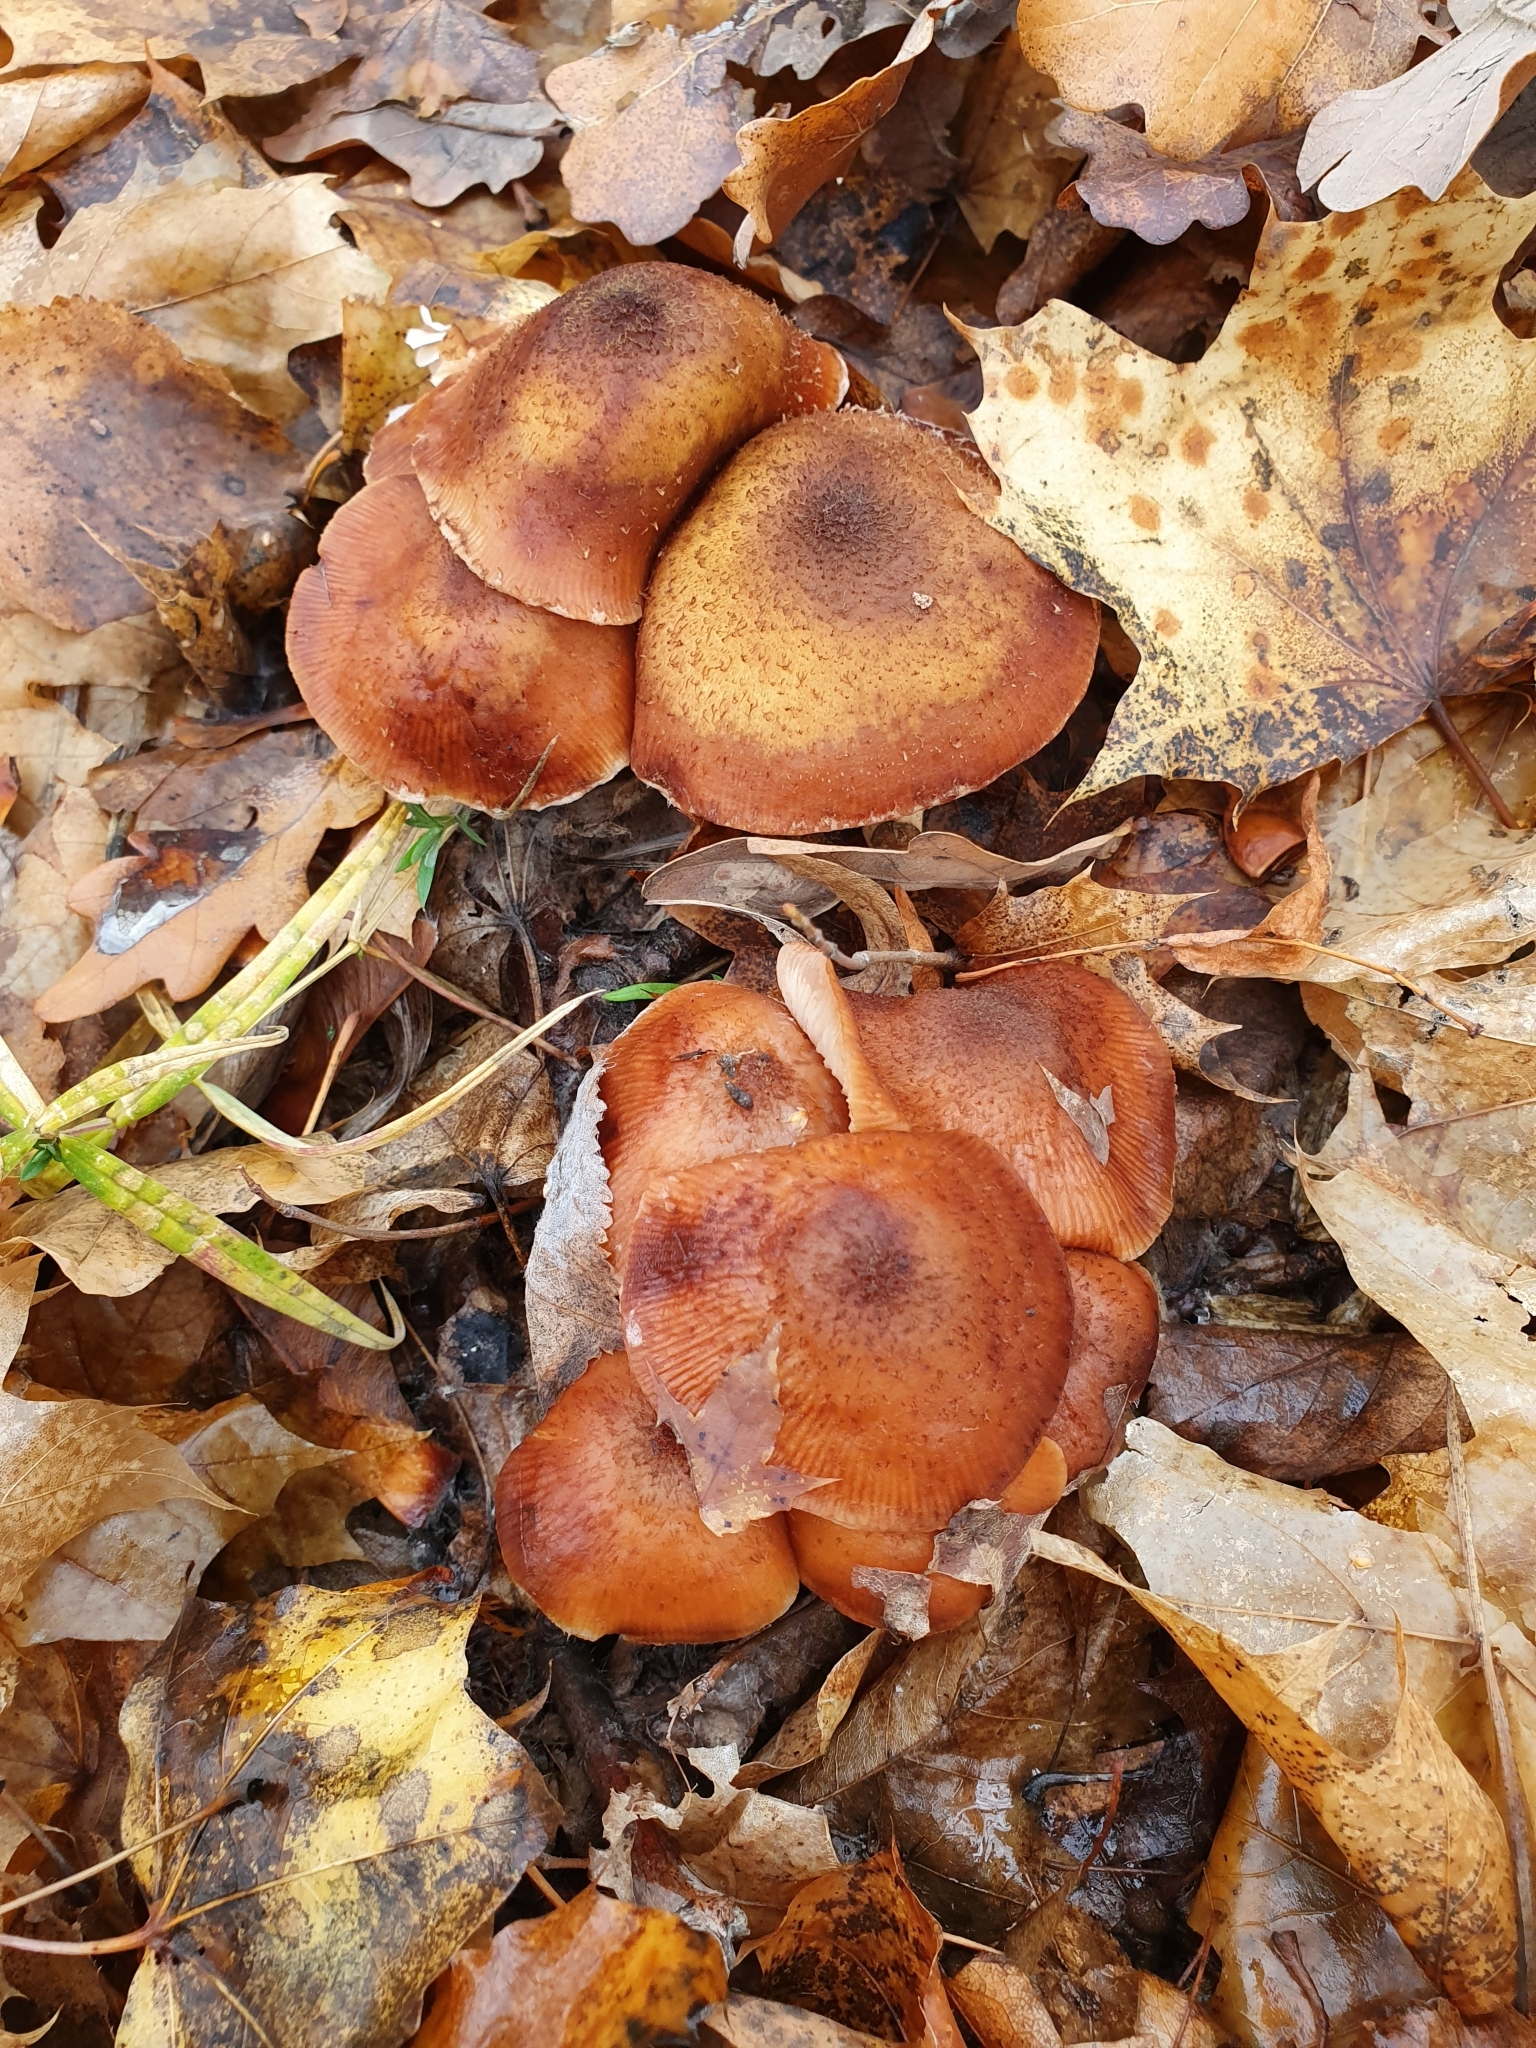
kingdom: Fungi
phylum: Basidiomycota
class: Agaricomycetes
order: Agaricales
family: Physalacriaceae
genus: Armillaria
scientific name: Armillaria borealis
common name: Northern honey fungus
